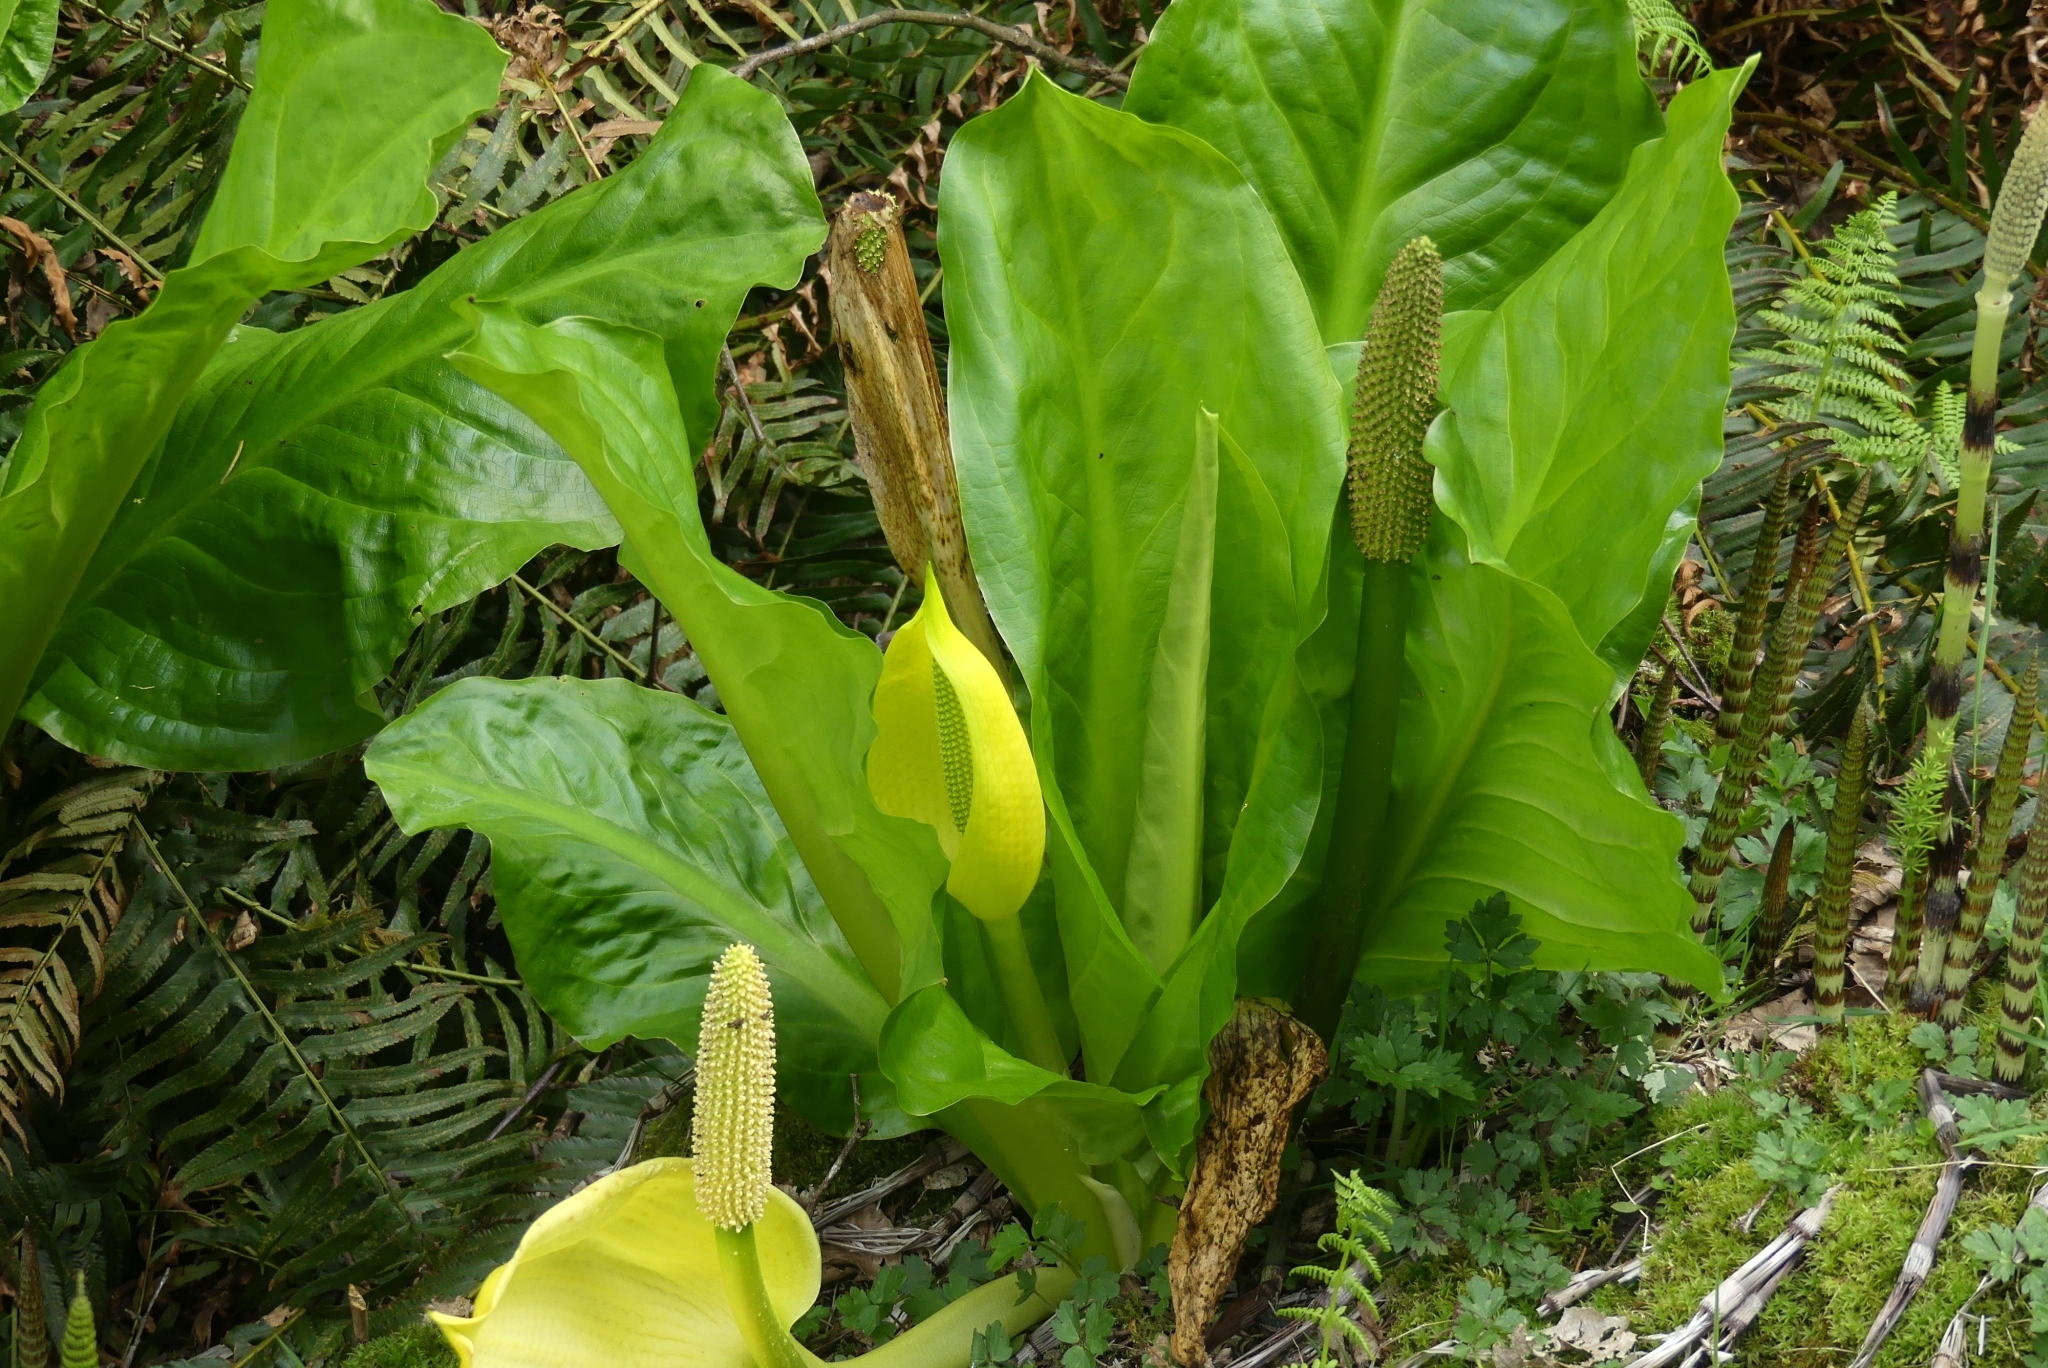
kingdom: Plantae
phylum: Tracheophyta
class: Liliopsida
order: Alismatales
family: Araceae
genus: Lysichiton
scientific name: Lysichiton americanus
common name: American skunk cabbage
